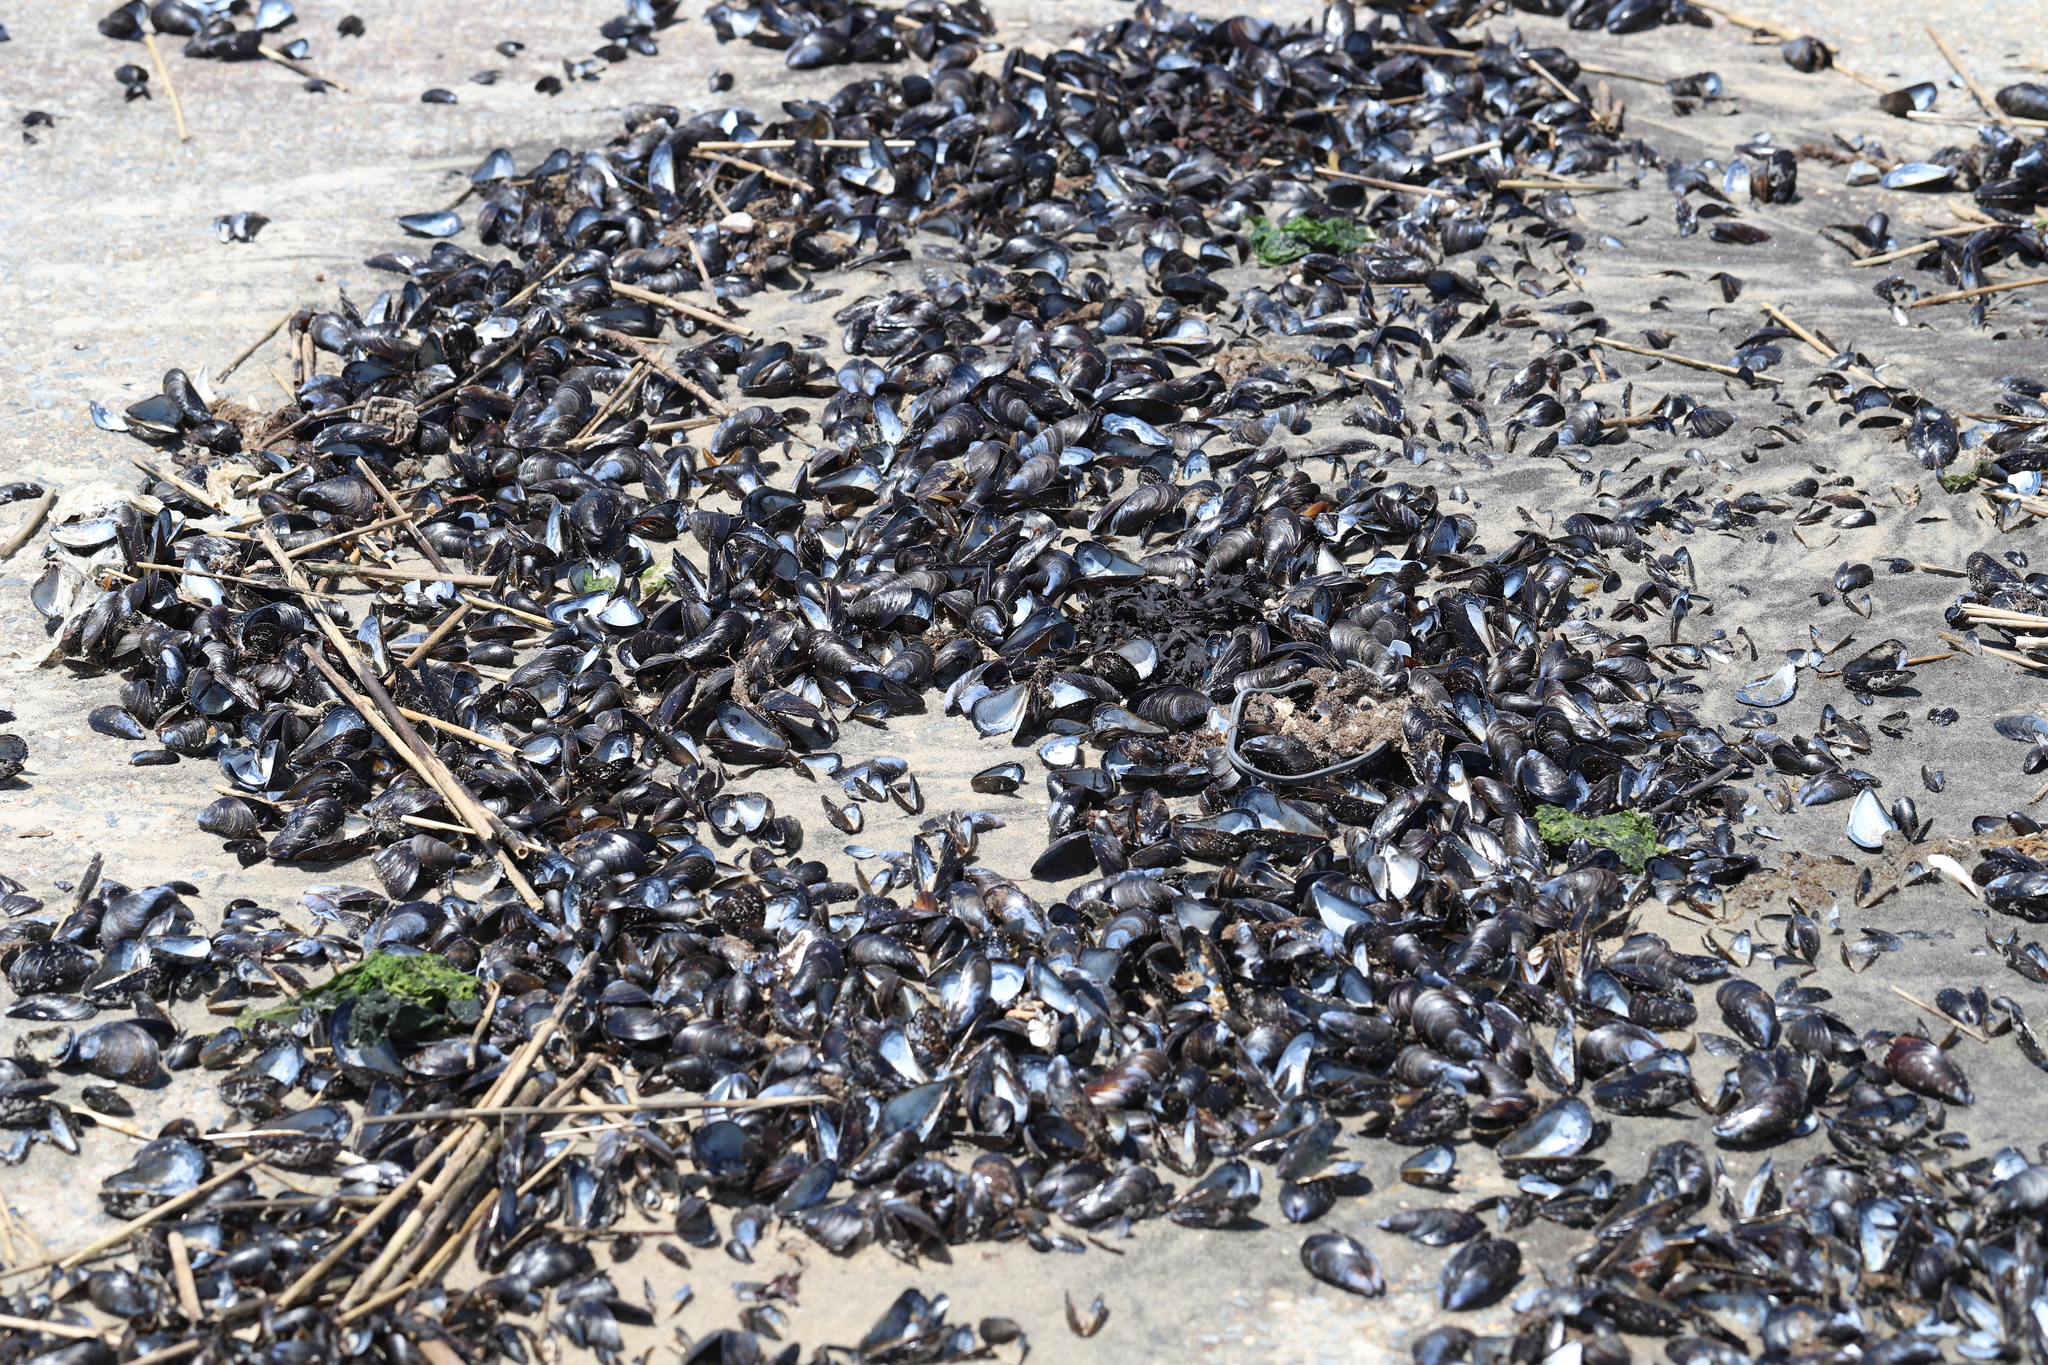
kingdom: Animalia
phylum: Mollusca
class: Bivalvia
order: Mytilida
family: Mytilidae
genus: Mytilus
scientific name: Mytilus edulis
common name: Blue mussel
